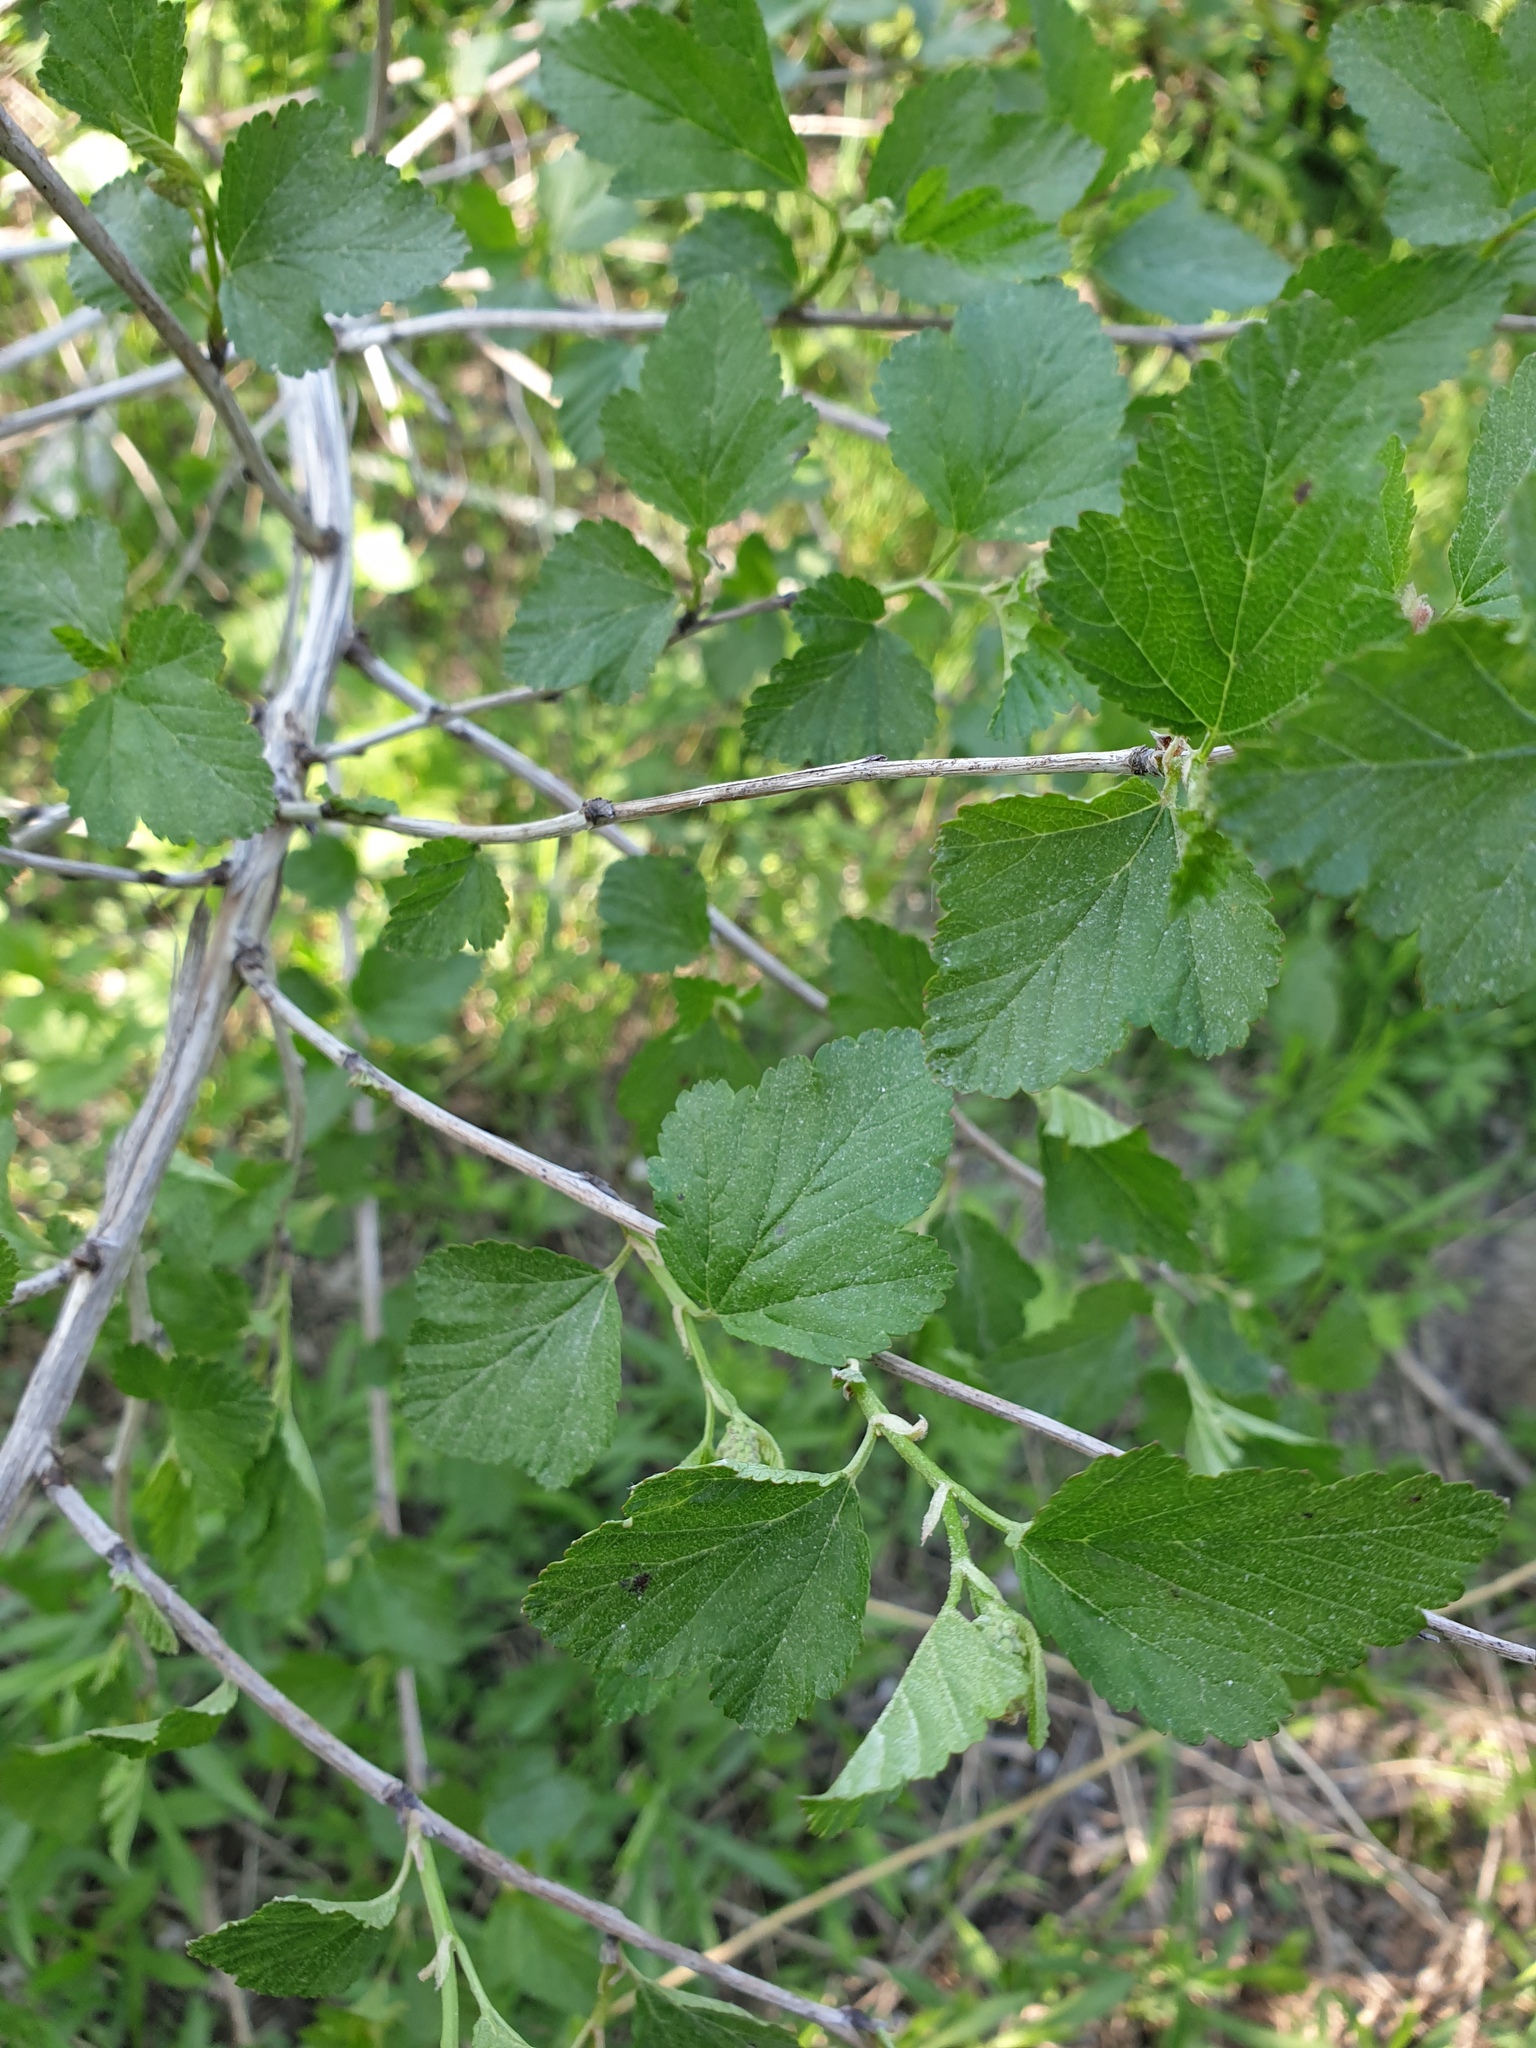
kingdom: Plantae
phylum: Tracheophyta
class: Magnoliopsida
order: Rosales
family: Rosaceae
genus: Physocarpus
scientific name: Physocarpus opulifolius
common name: Ninebark
